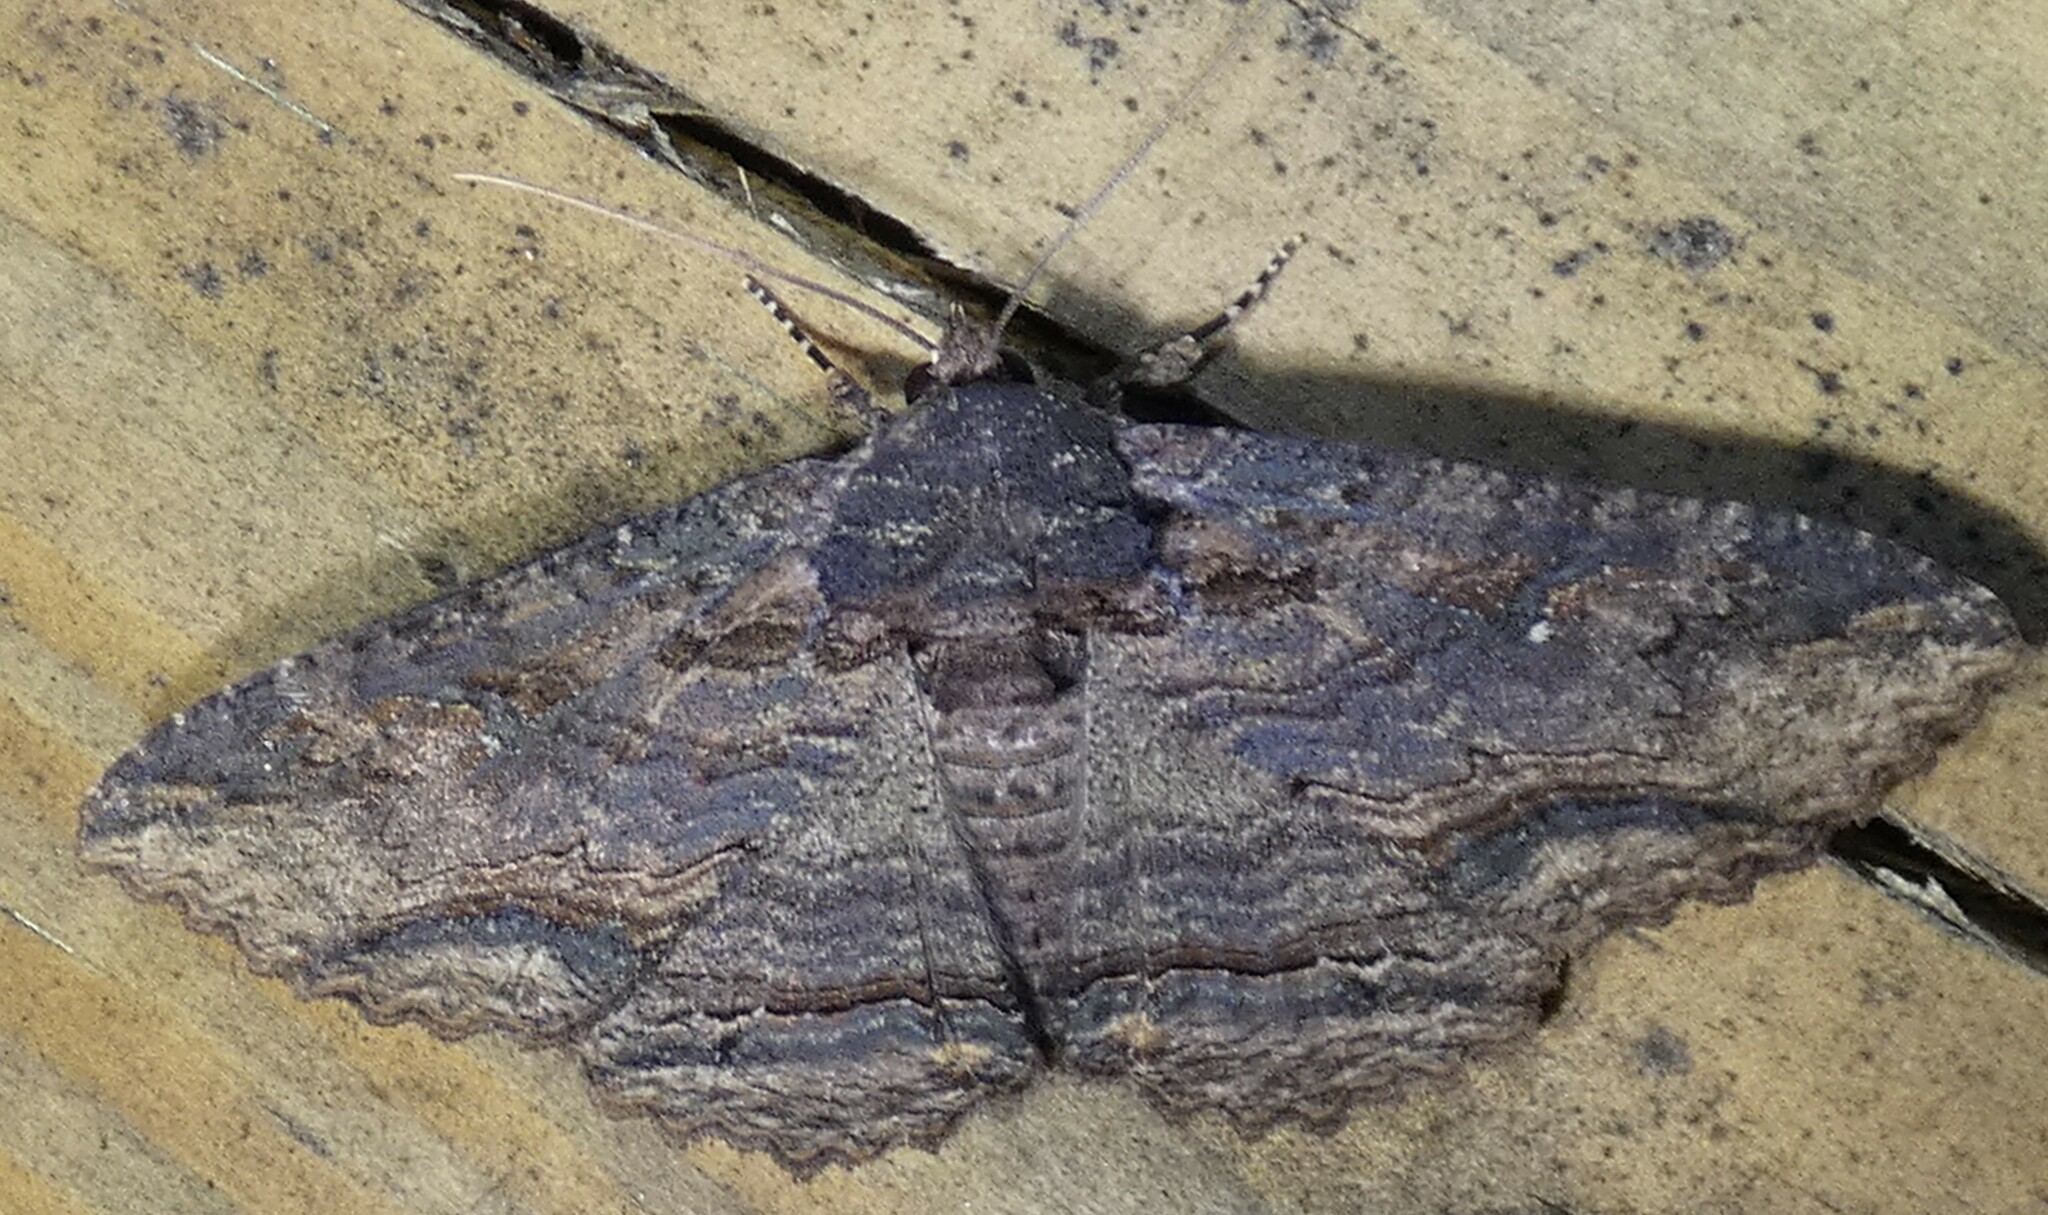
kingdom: Animalia
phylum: Arthropoda
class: Insecta
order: Lepidoptera
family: Erebidae
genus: Zale
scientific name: Zale lunata
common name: Lunate zale moth
